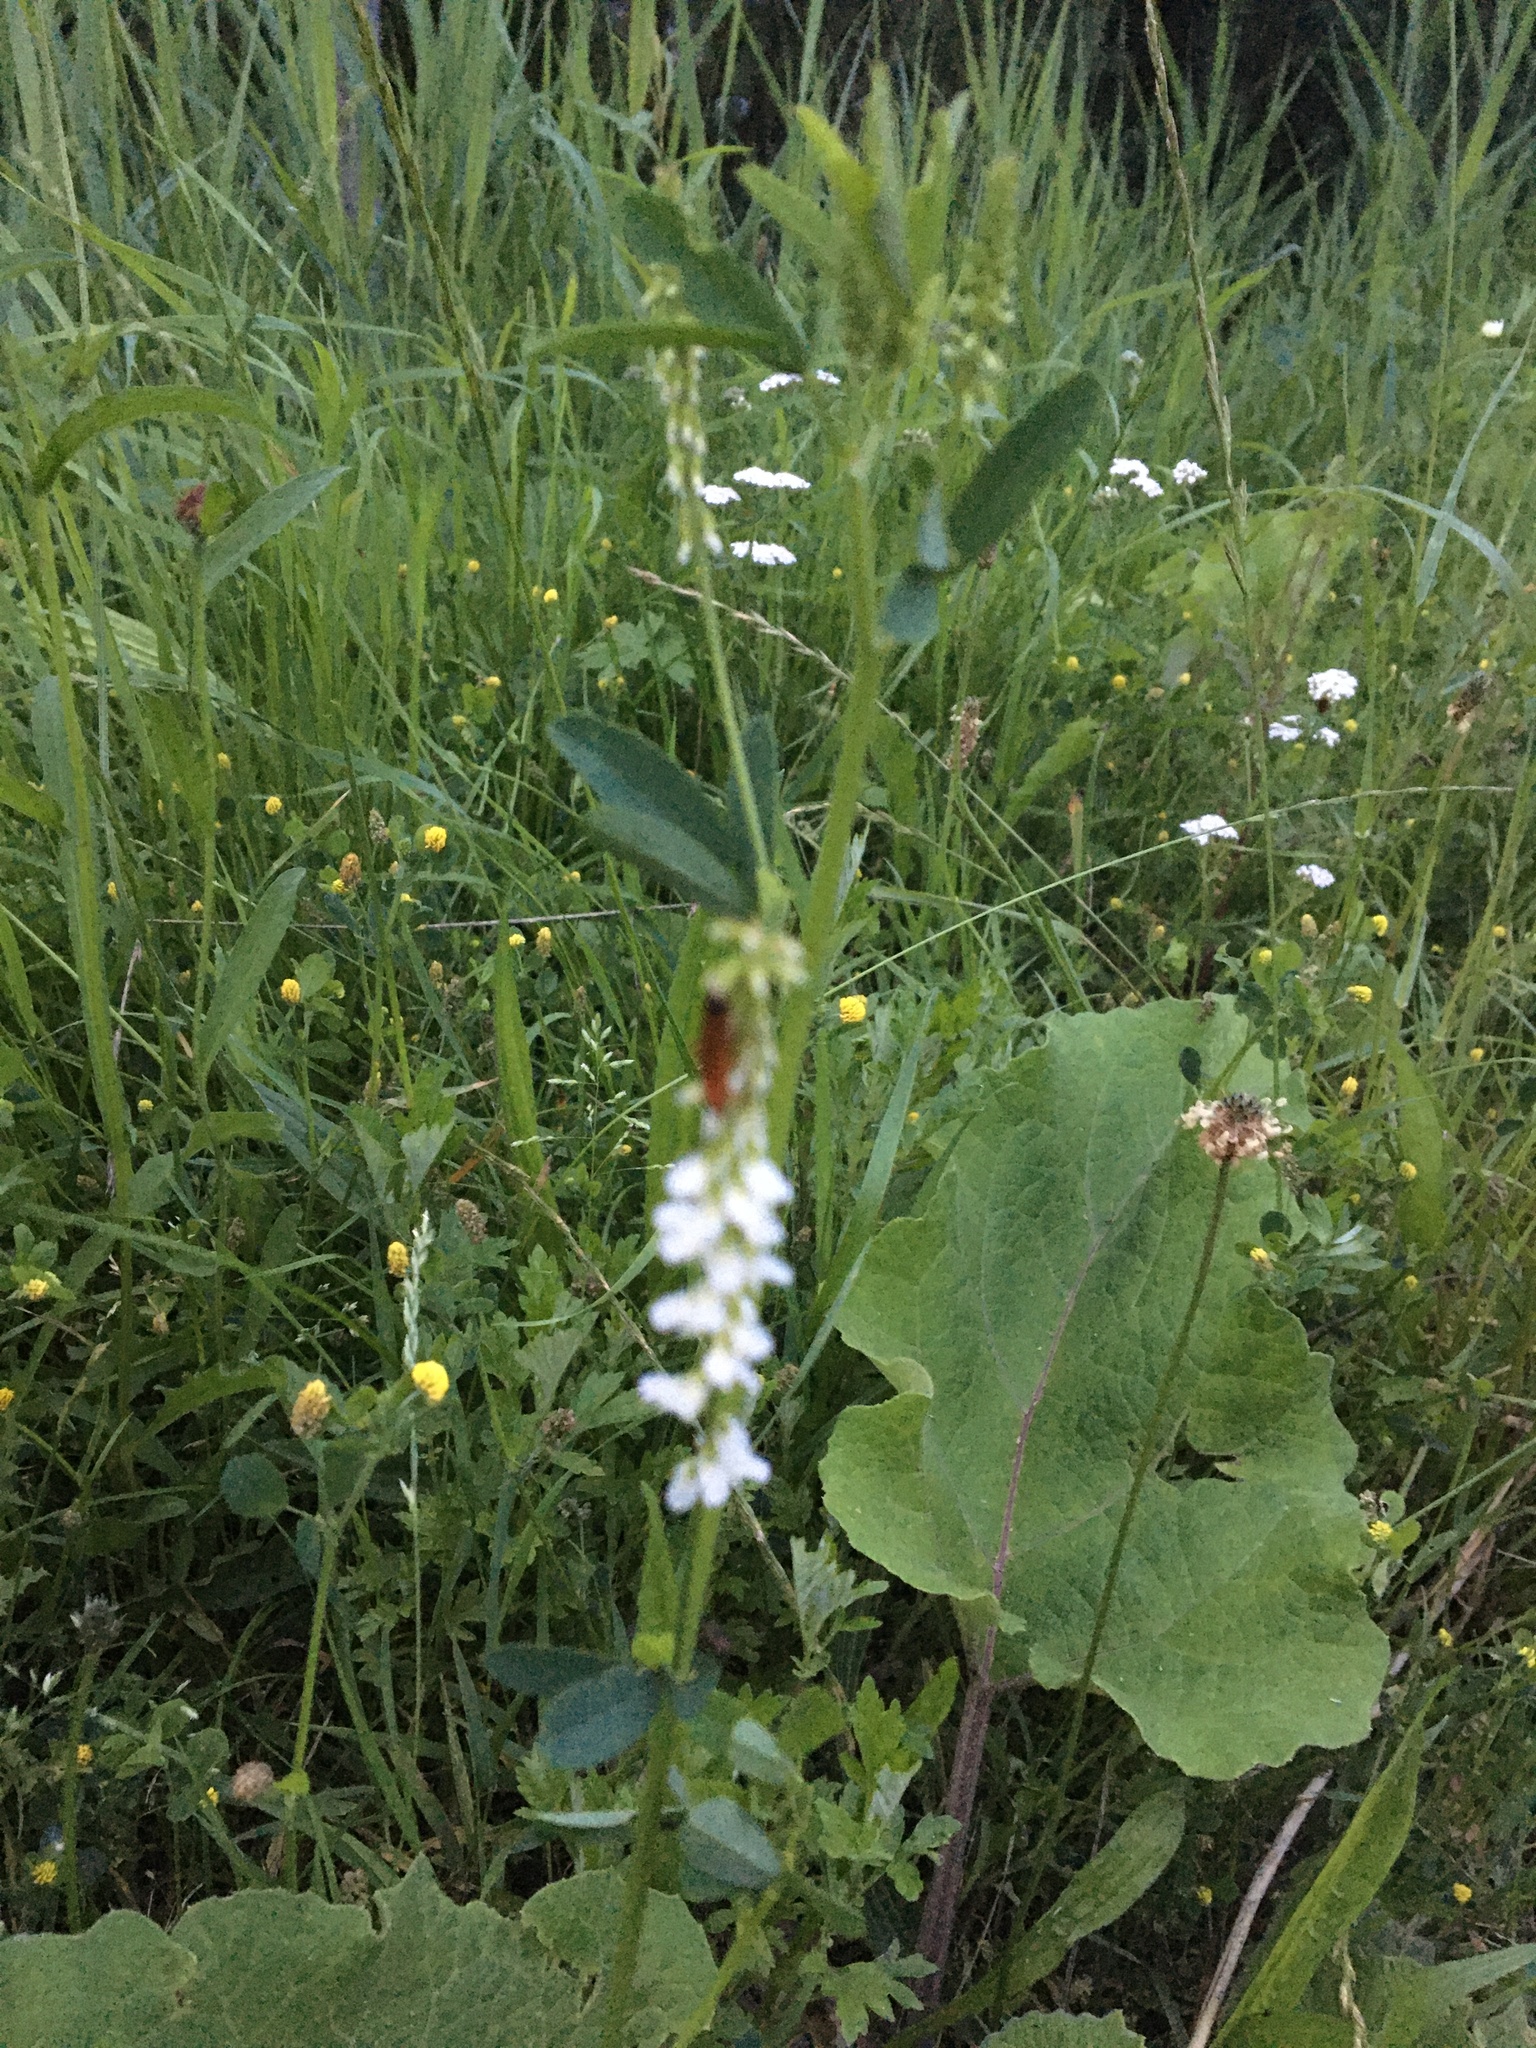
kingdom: Plantae
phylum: Tracheophyta
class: Magnoliopsida
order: Fabales
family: Fabaceae
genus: Melilotus
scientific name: Melilotus albus
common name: White melilot
